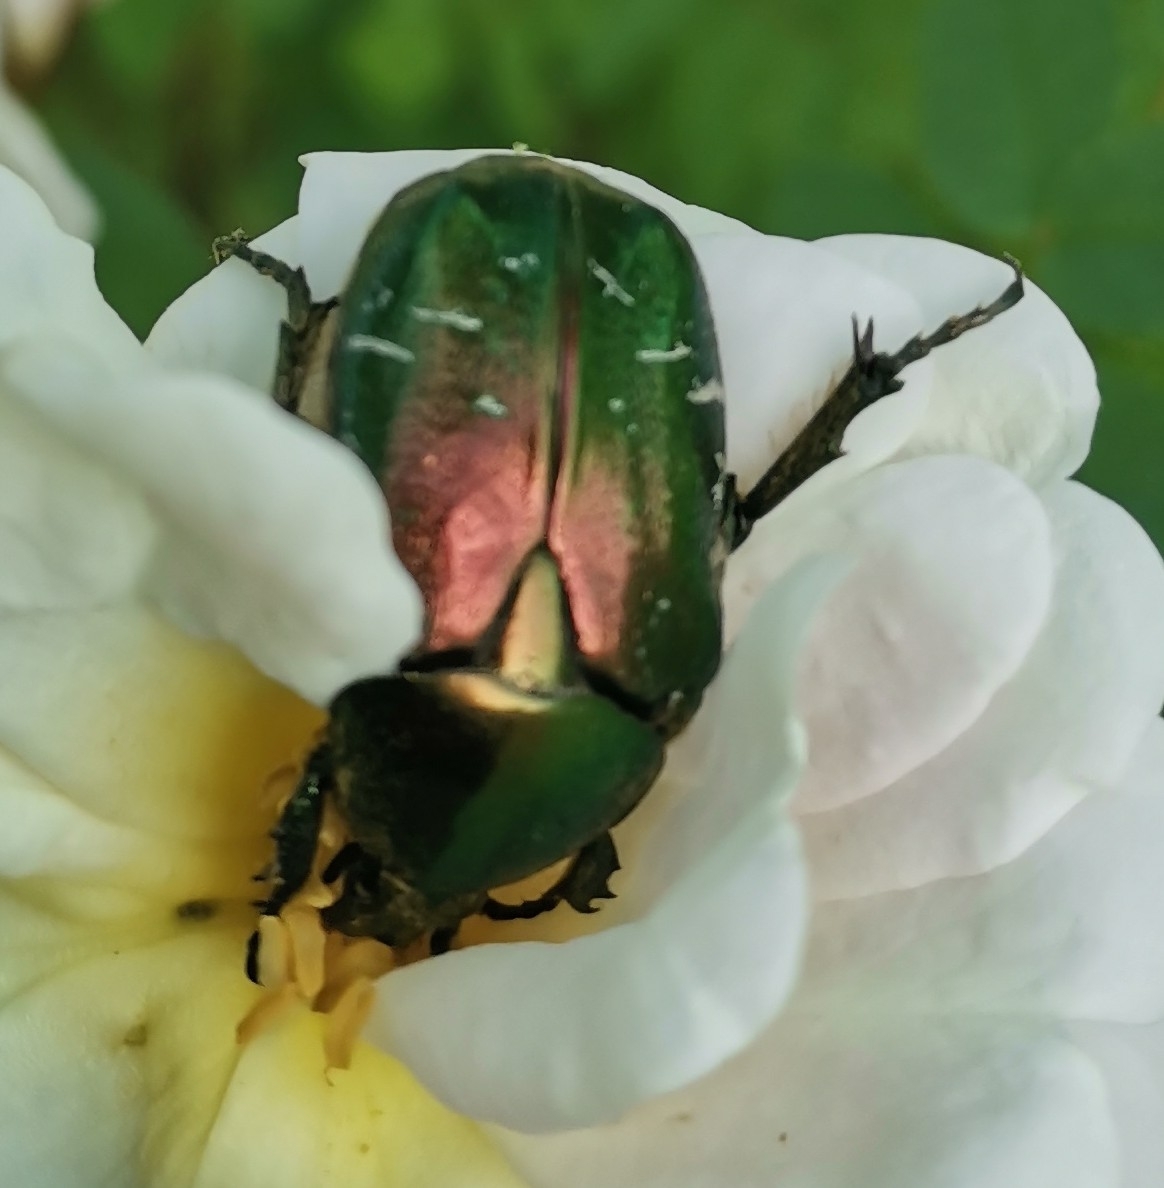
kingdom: Animalia
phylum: Arthropoda
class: Insecta
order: Coleoptera
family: Scarabaeidae
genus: Cetonia
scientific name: Cetonia aurata
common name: Rose chafer
